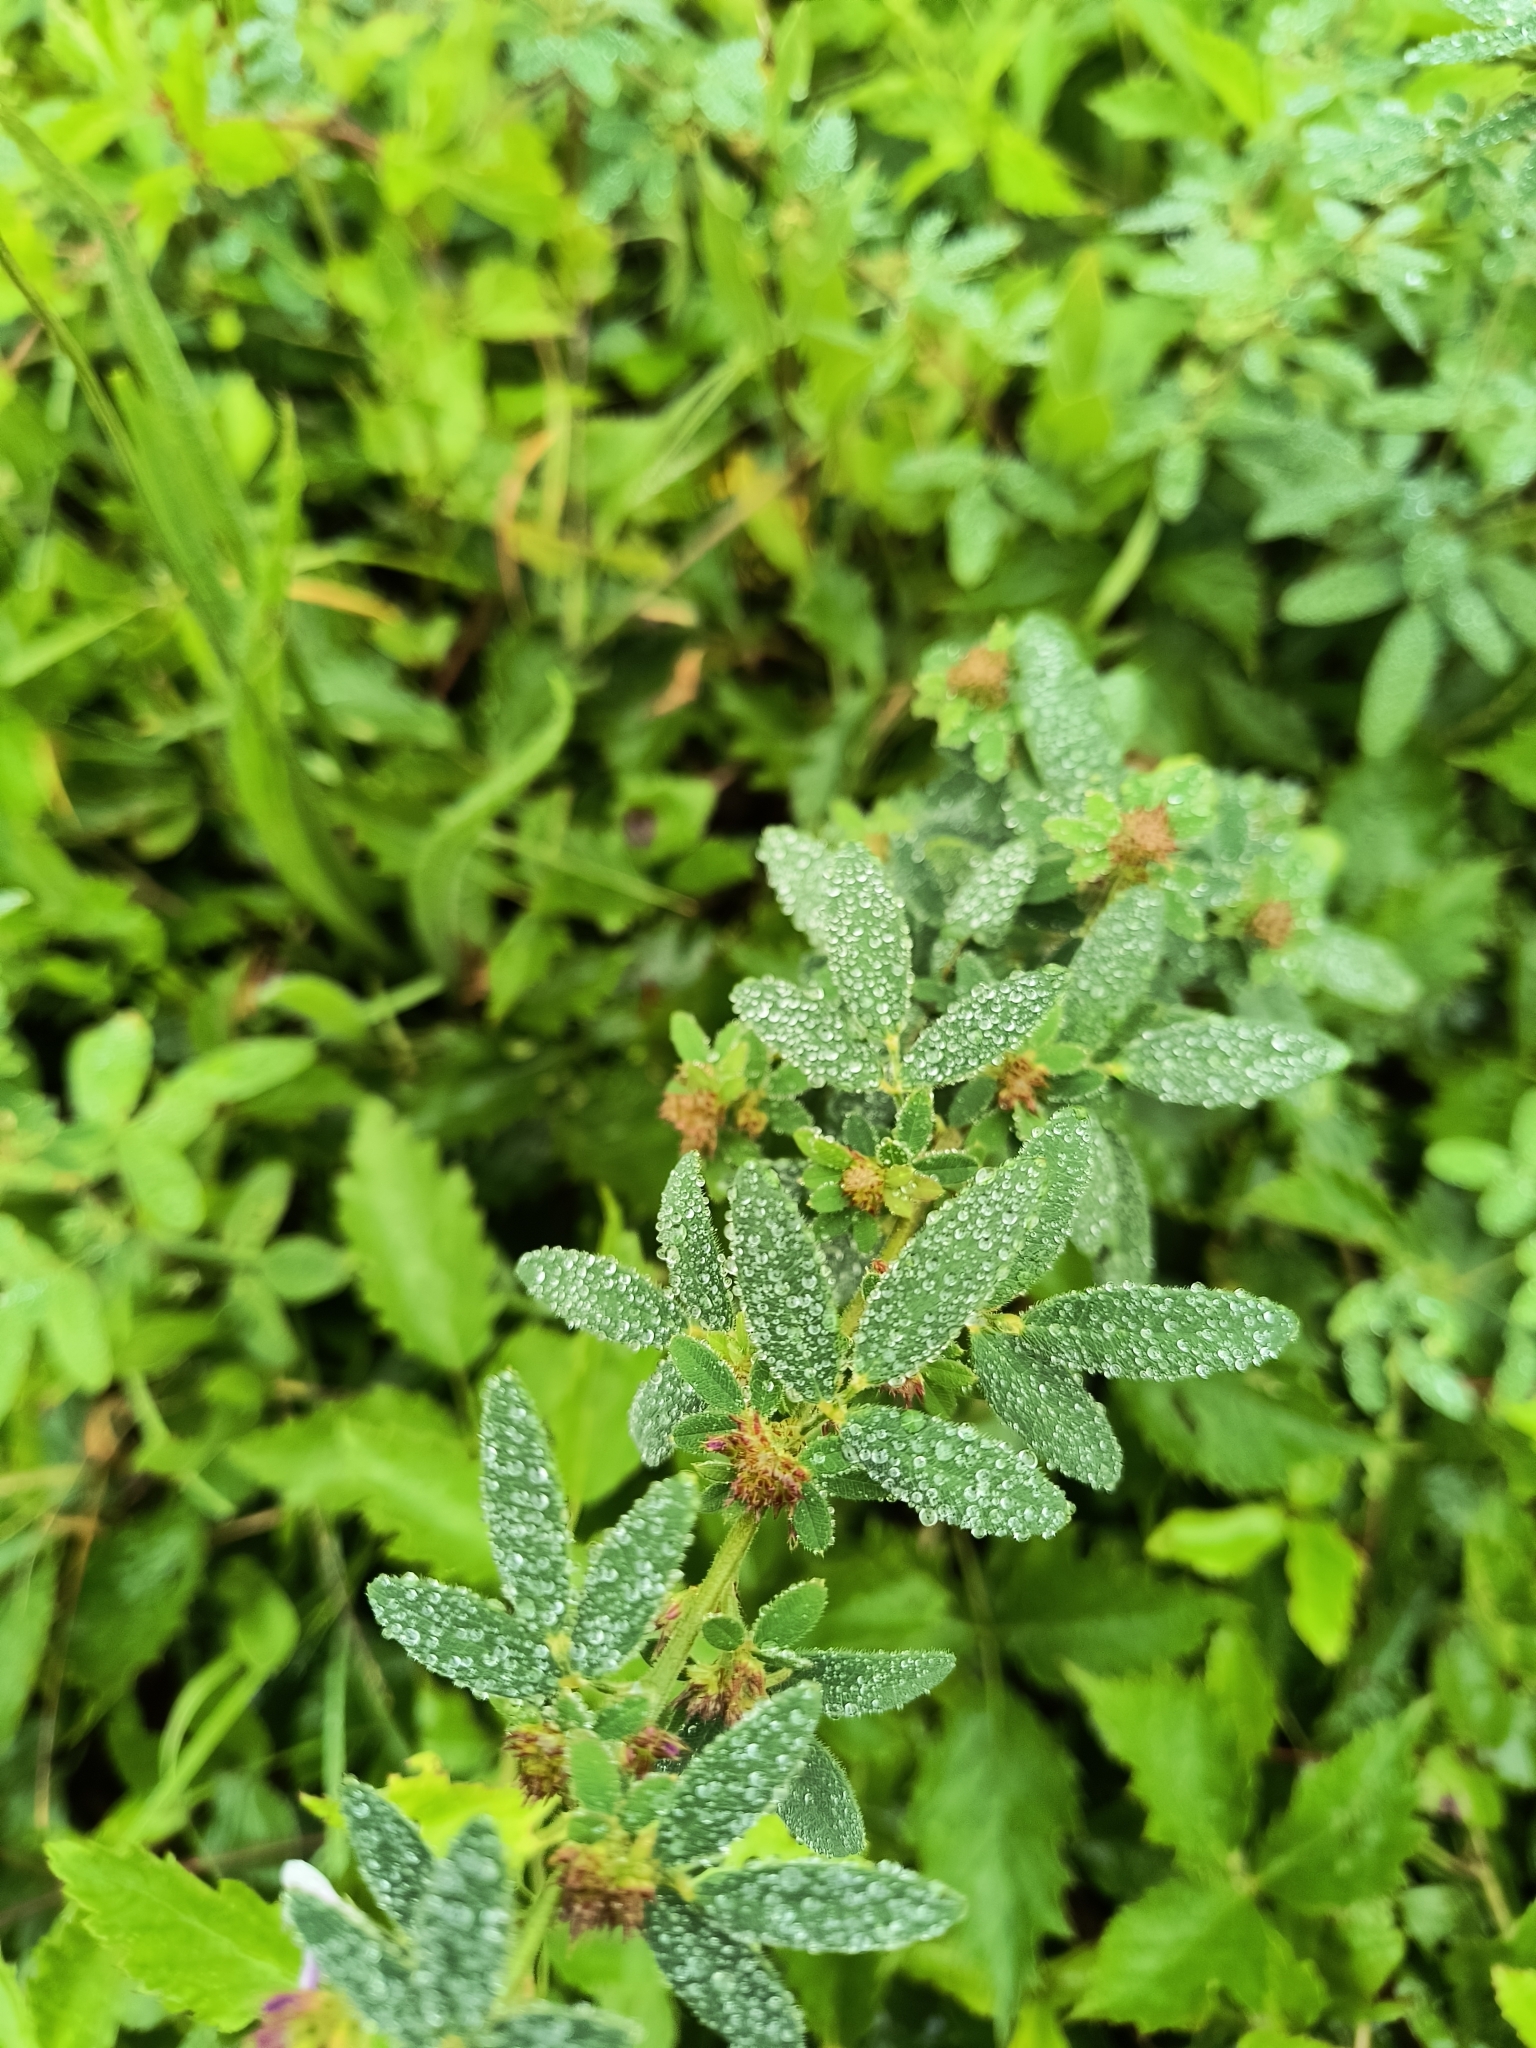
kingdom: Plantae
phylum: Tracheophyta
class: Magnoliopsida
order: Fabales
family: Fabaceae
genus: Lespedeza
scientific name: Lespedeza stuevei
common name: Tall bush-clover
